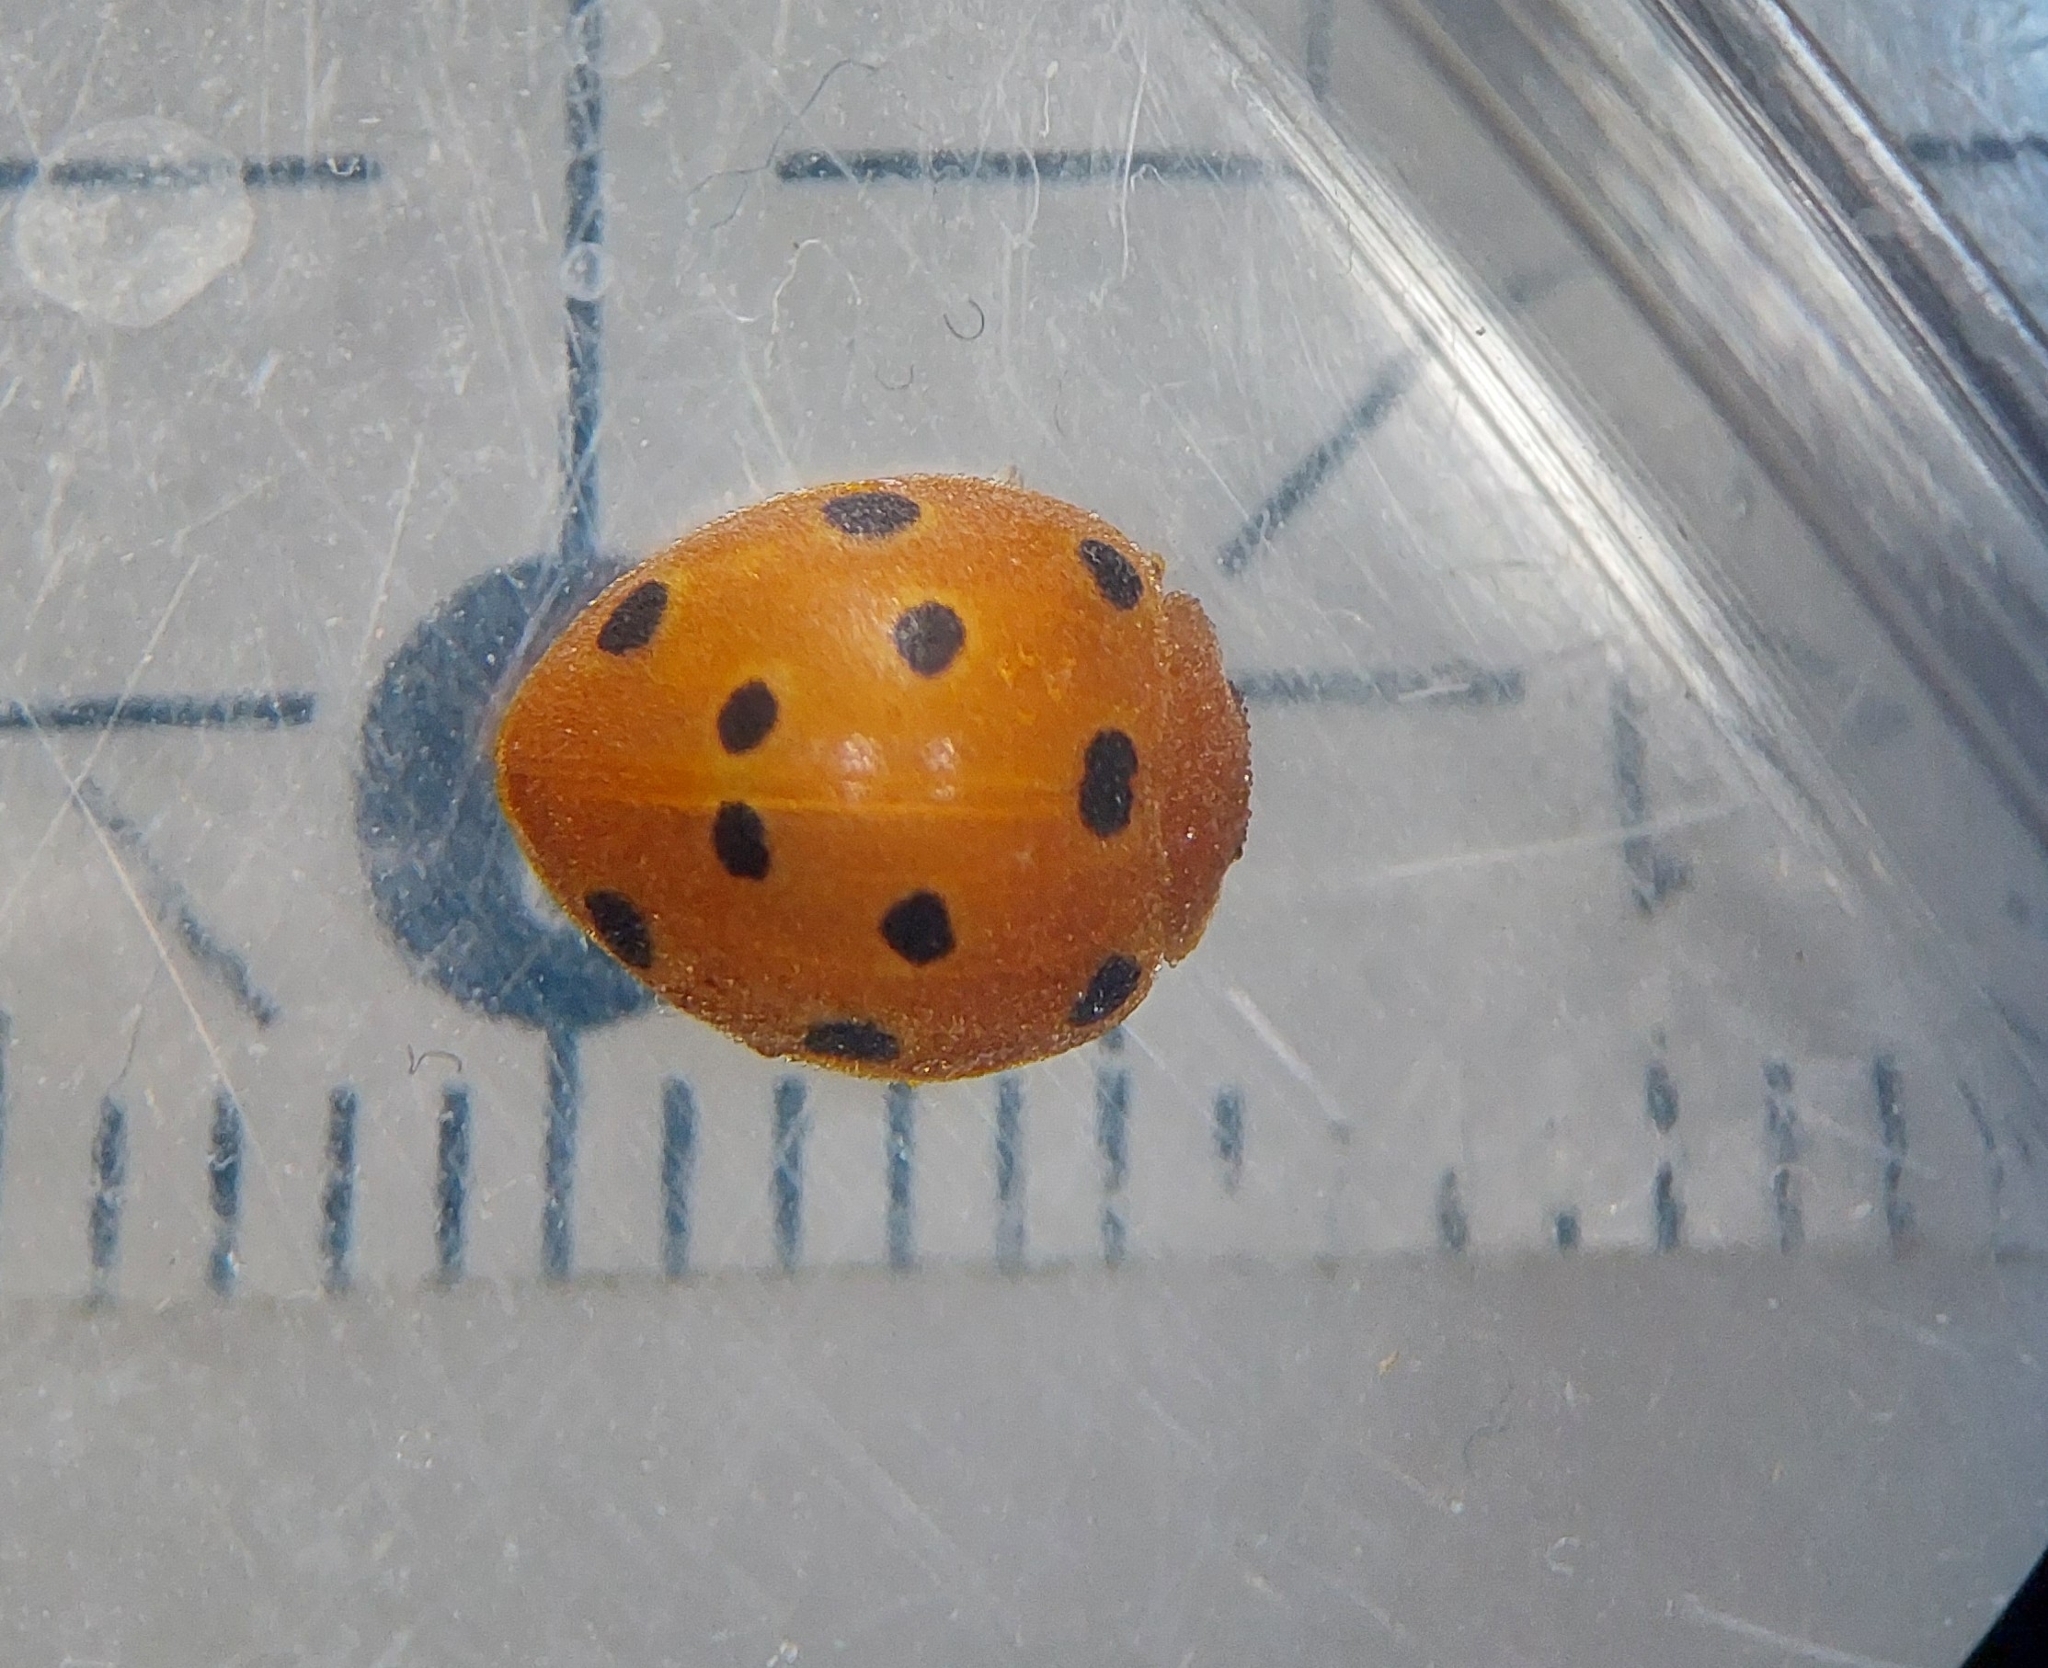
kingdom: Animalia
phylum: Arthropoda
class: Insecta
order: Coleoptera
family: Coccinellidae
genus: Henosepilachna
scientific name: Henosepilachna argus
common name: Bryony ladybird
